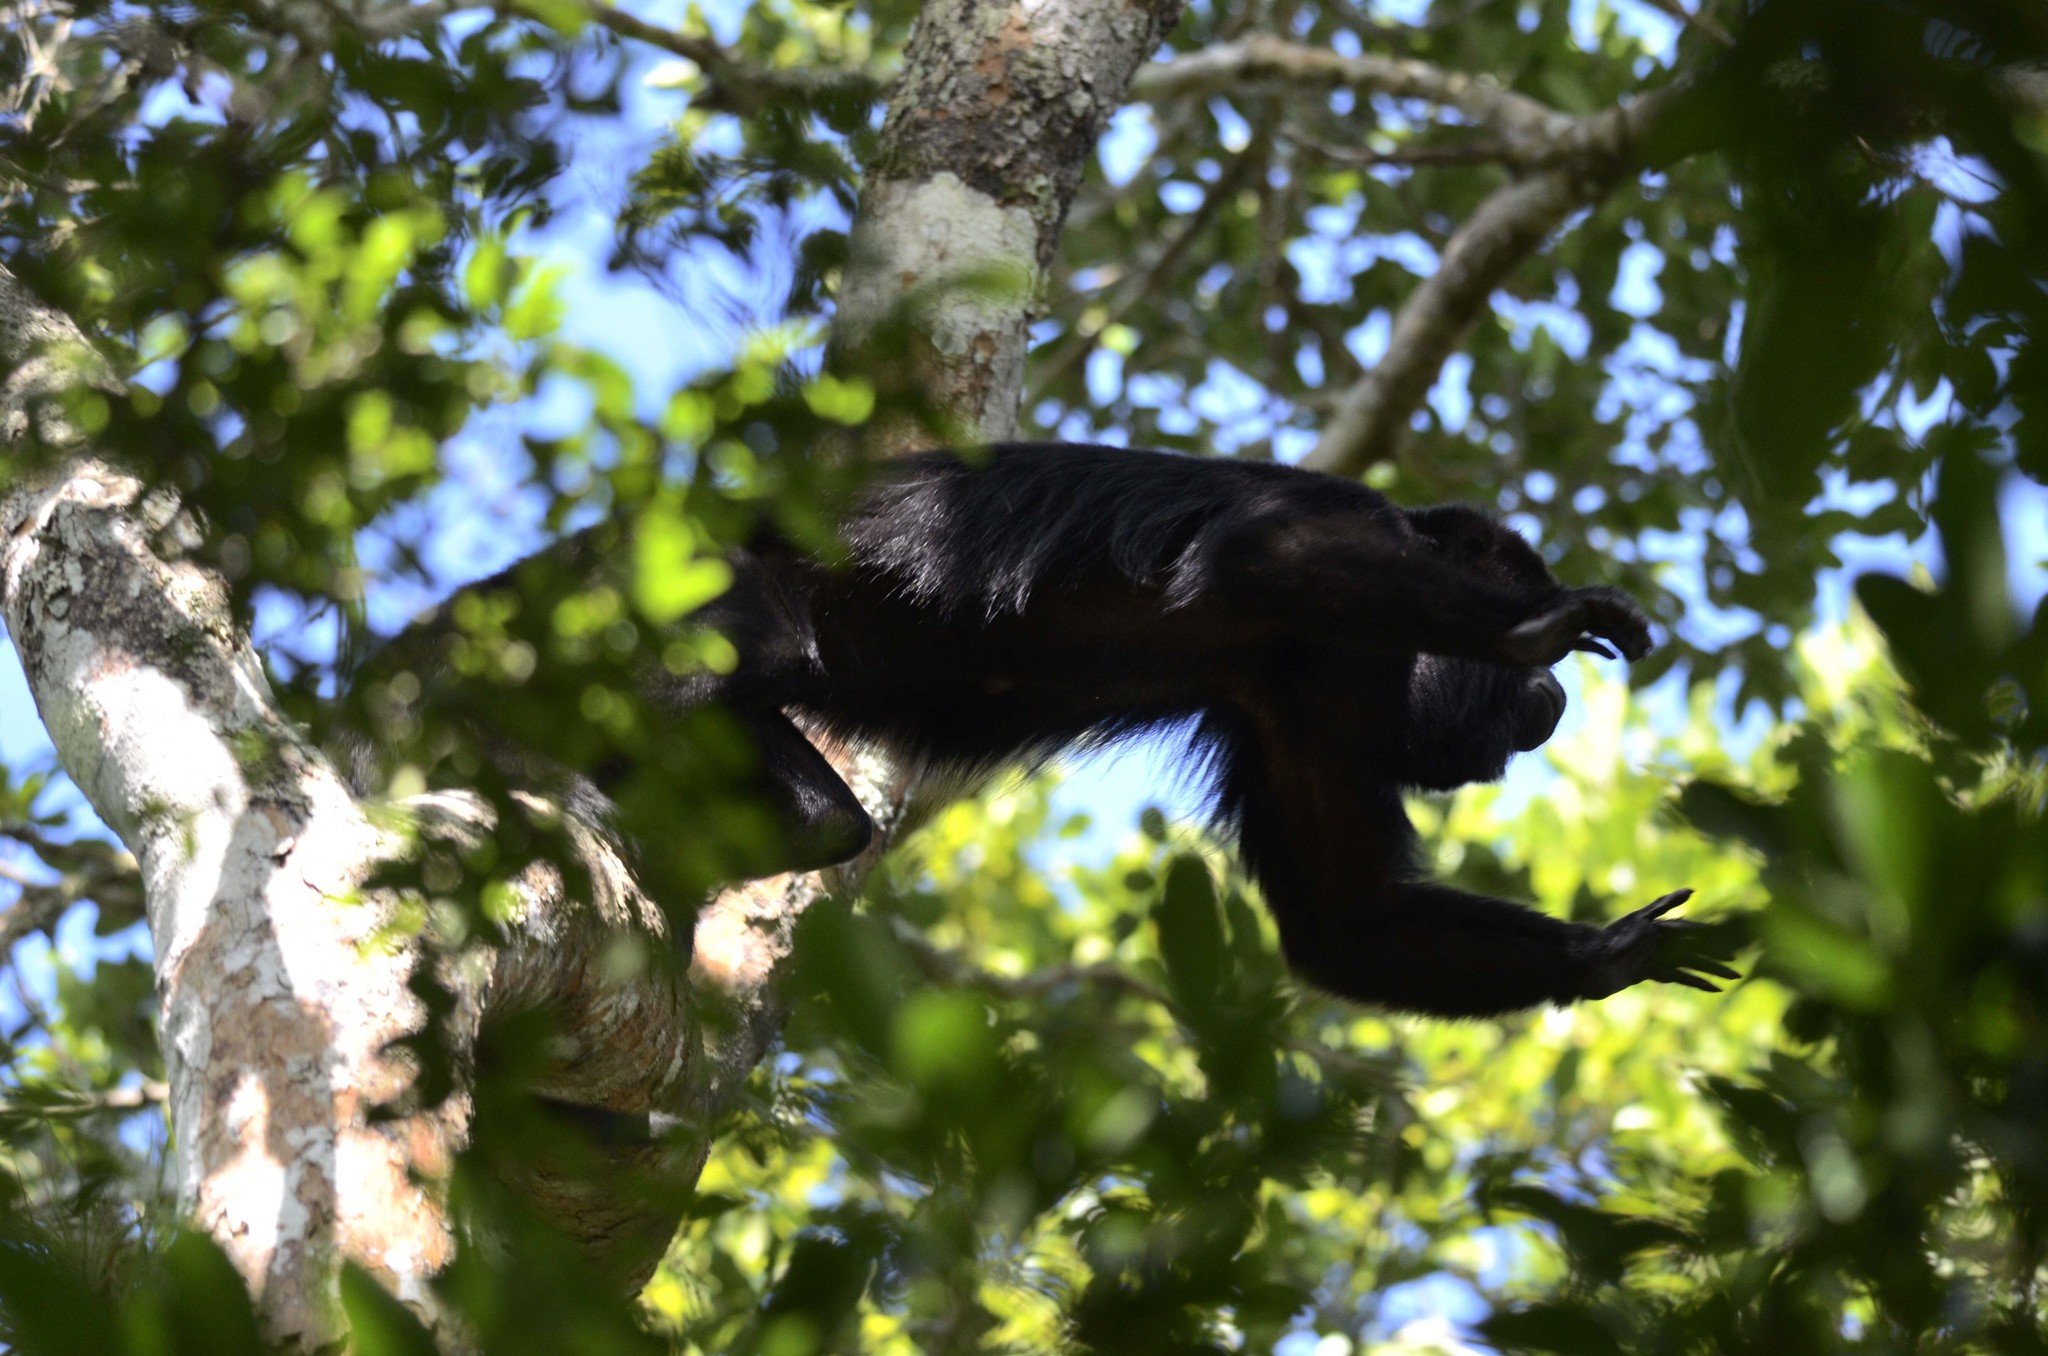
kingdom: Animalia
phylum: Chordata
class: Mammalia
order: Primates
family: Atelidae
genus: Alouatta
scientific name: Alouatta pigra
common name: Guatemalan black howler
